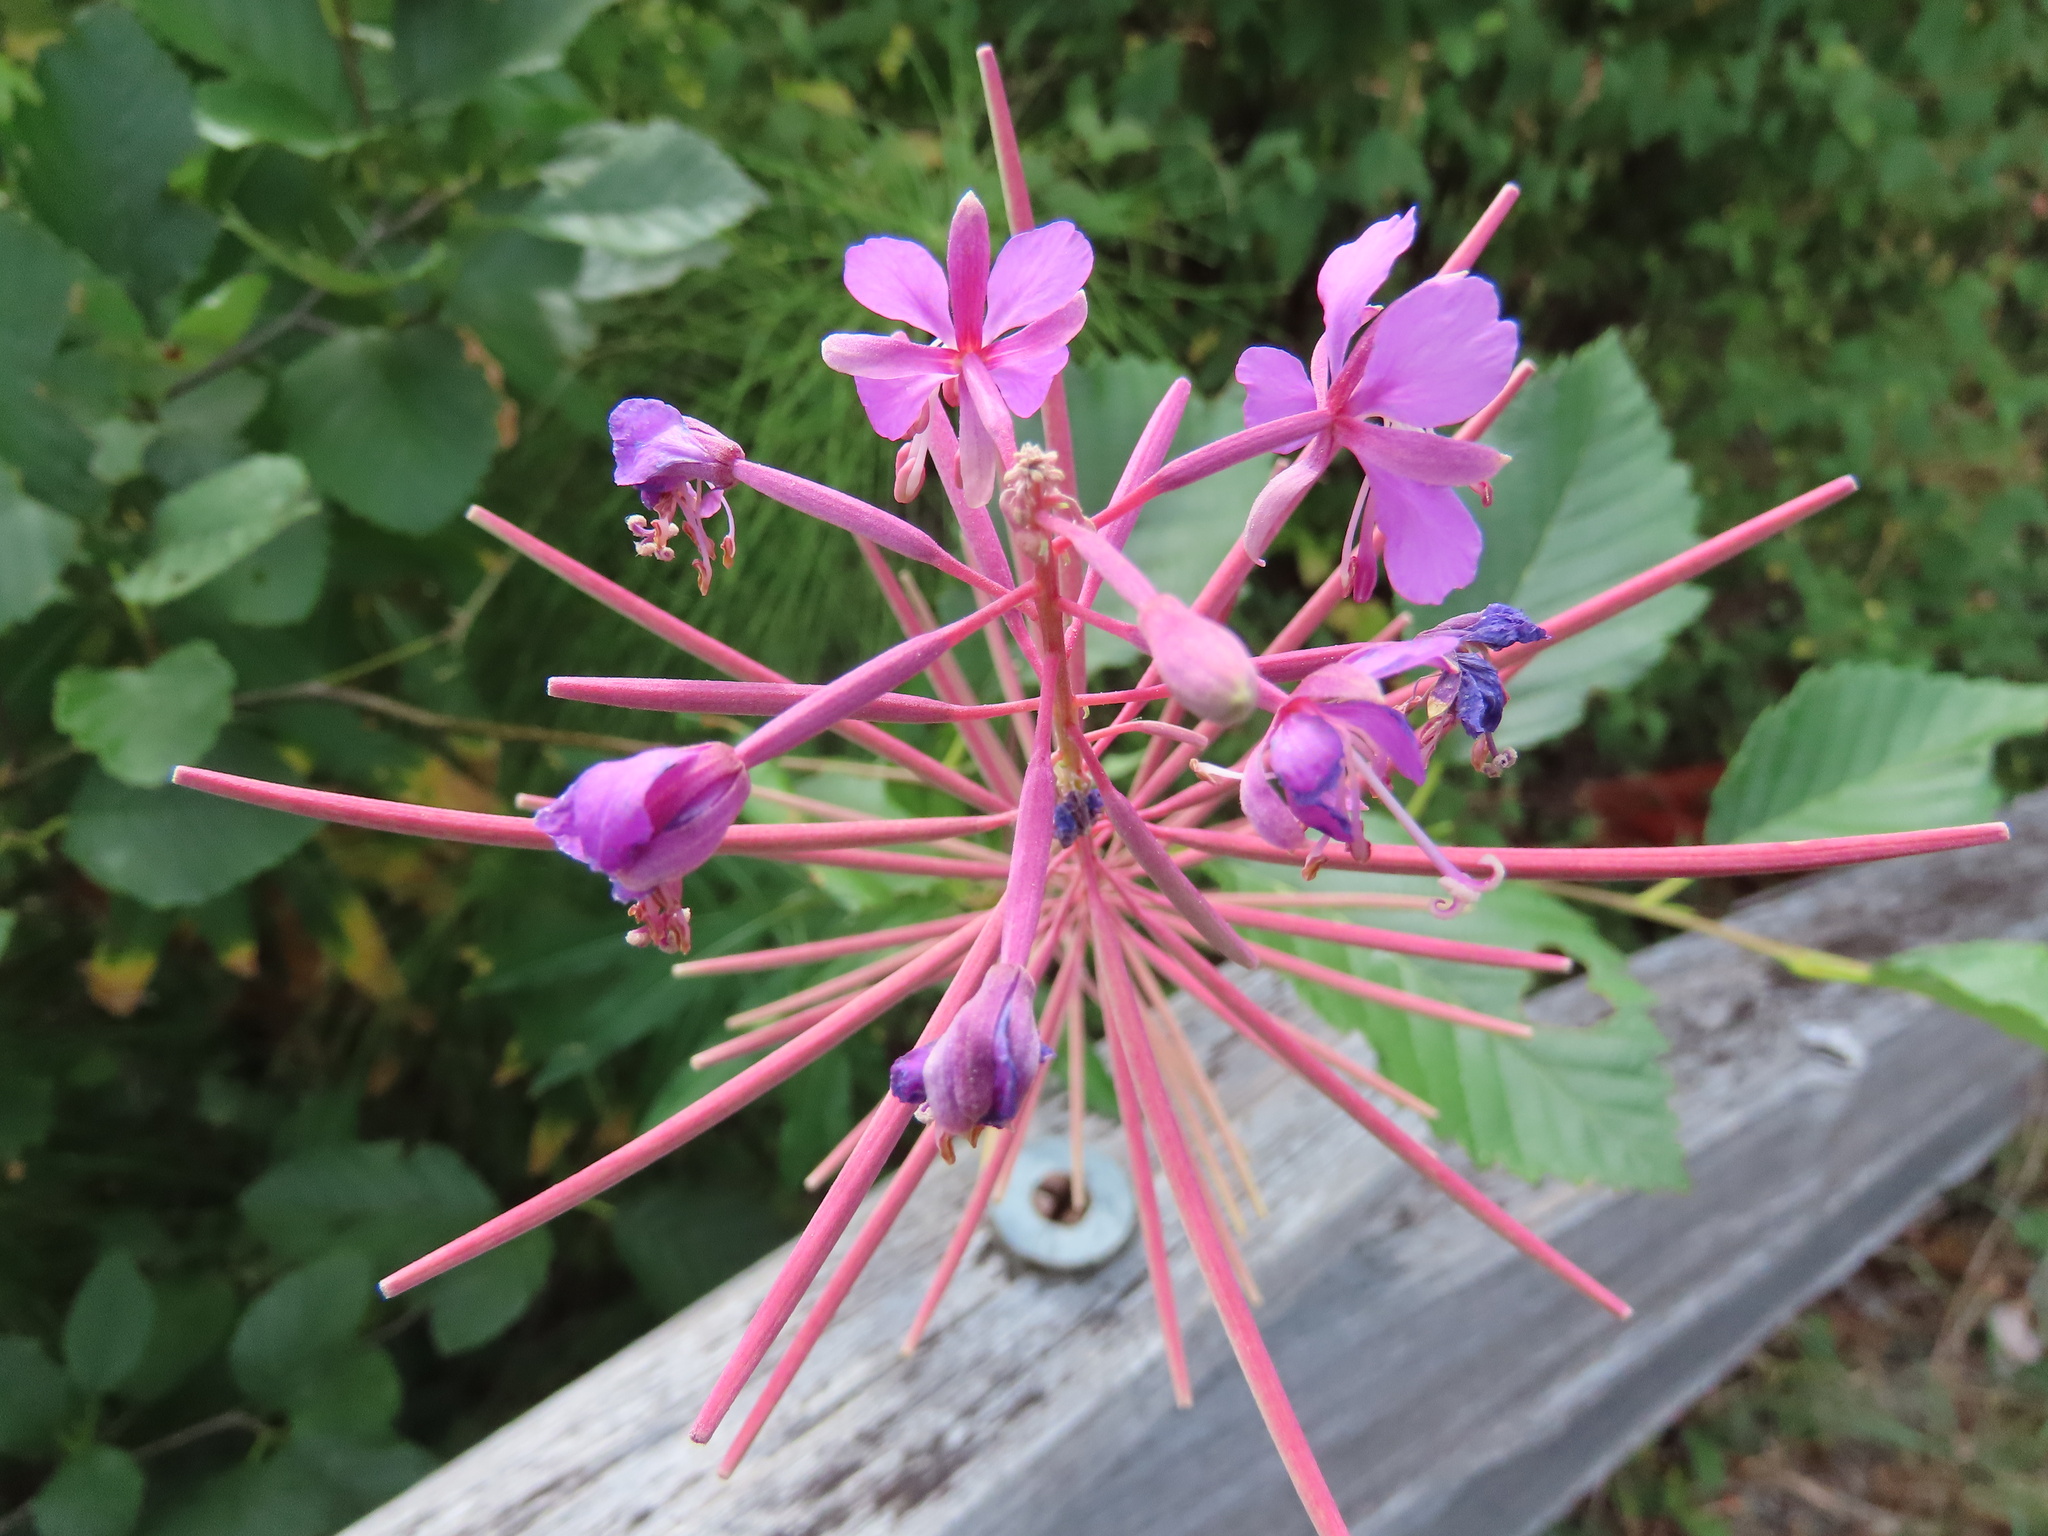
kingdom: Plantae
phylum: Tracheophyta
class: Magnoliopsida
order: Myrtales
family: Onagraceae
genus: Chamaenerion
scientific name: Chamaenerion angustifolium
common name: Fireweed
